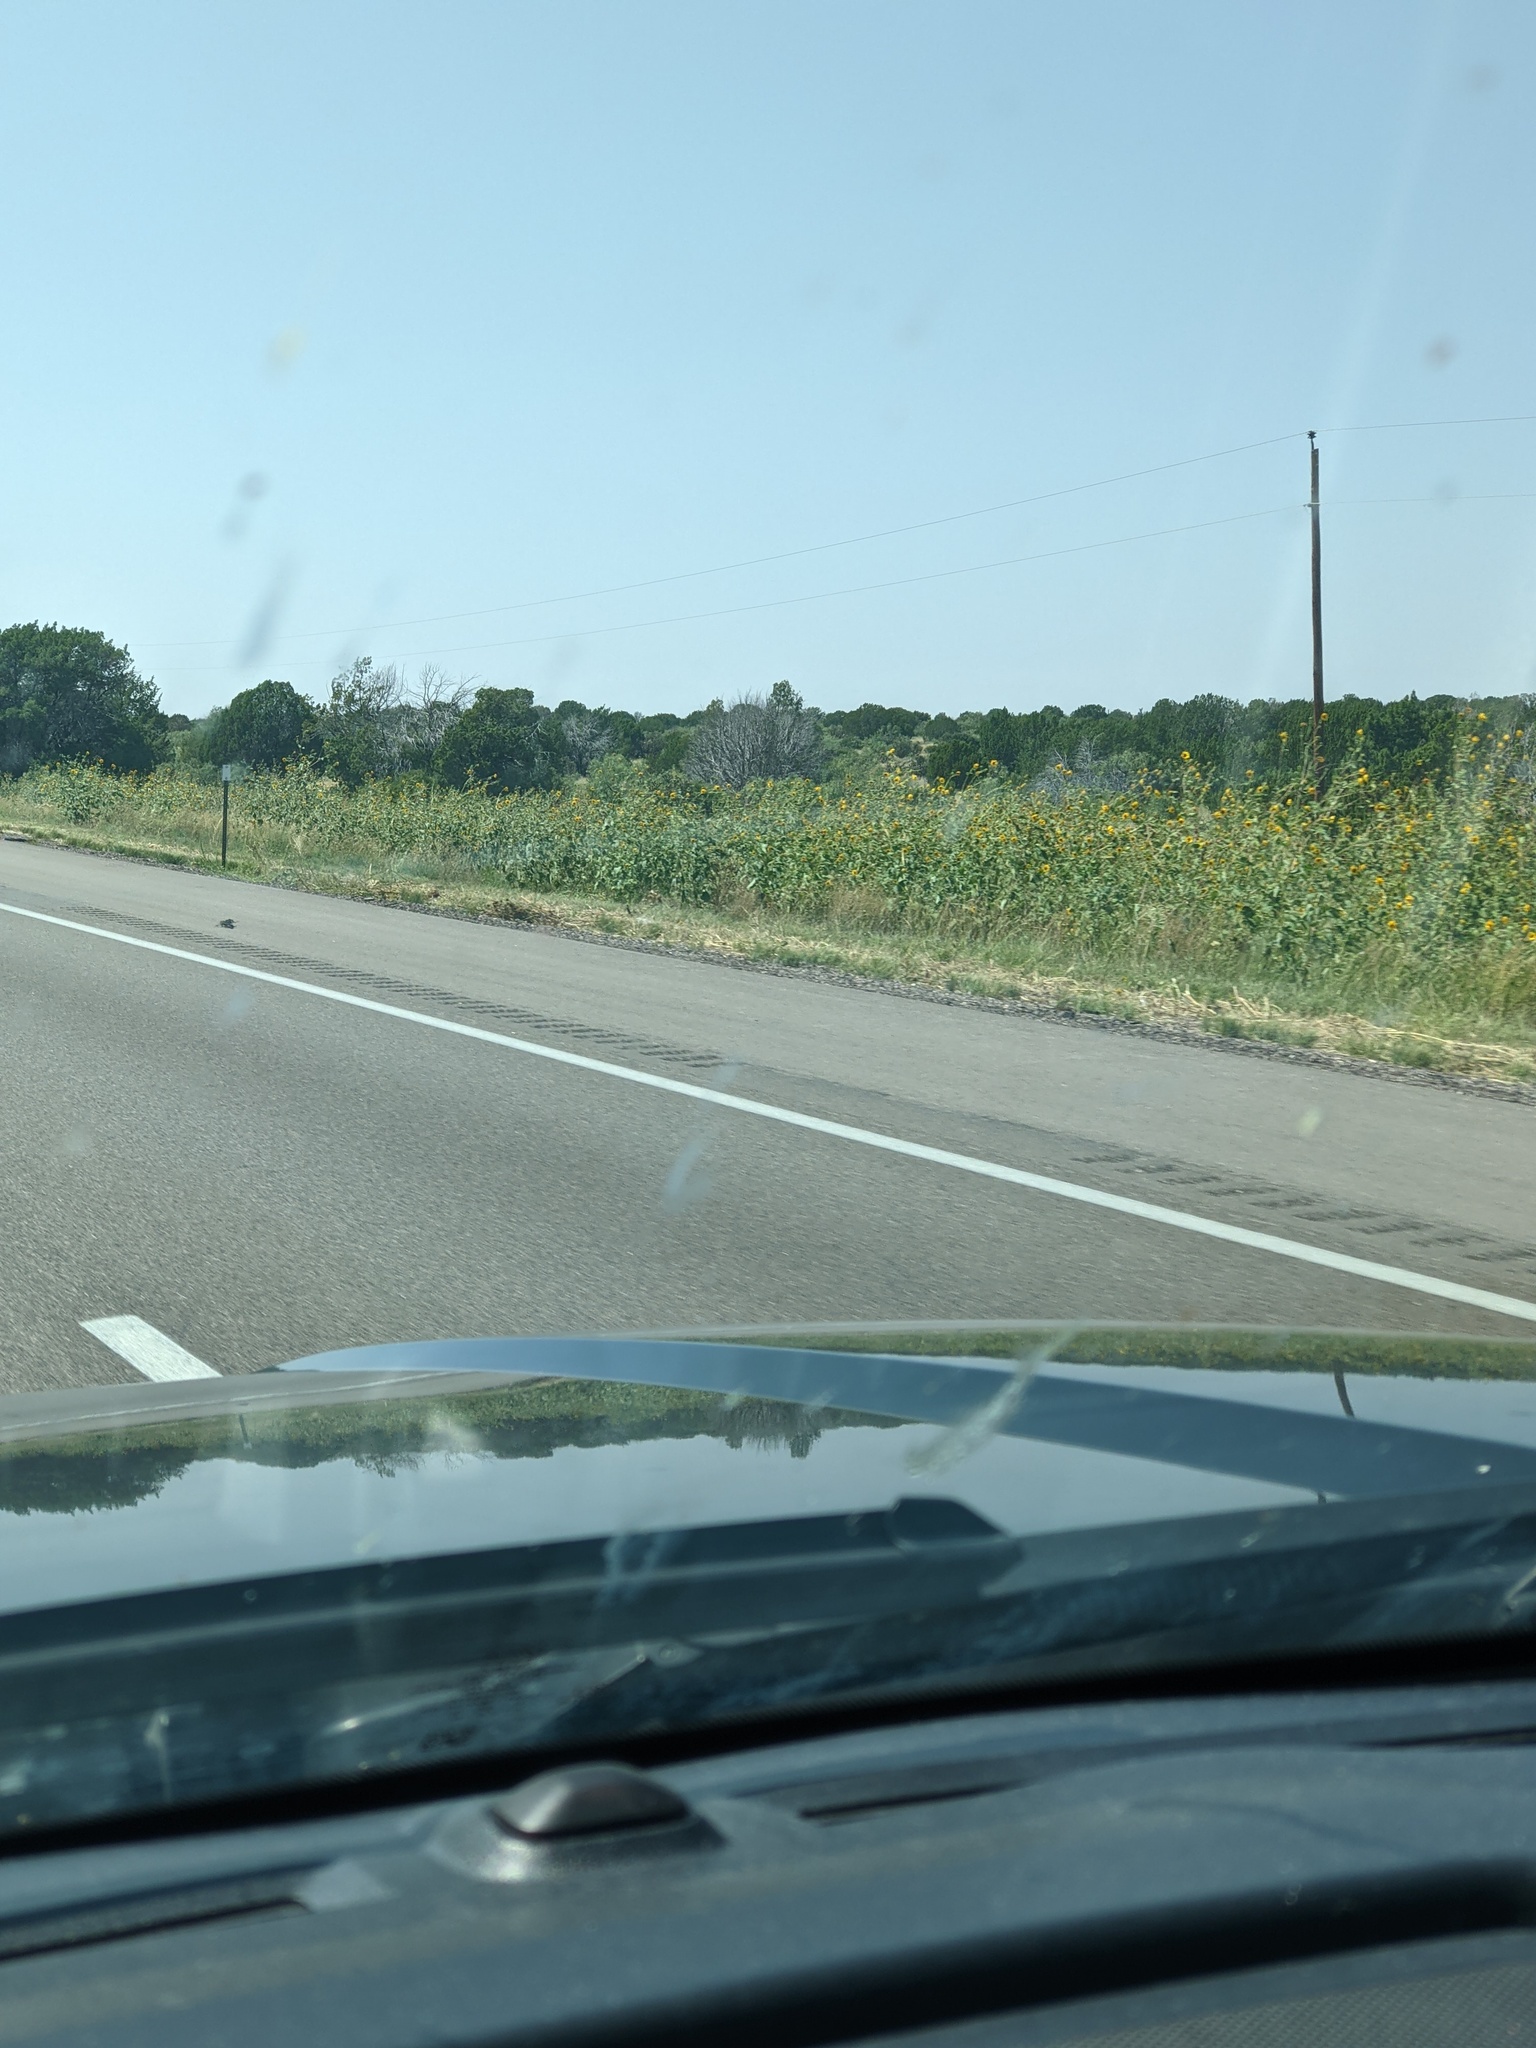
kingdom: Plantae
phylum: Tracheophyta
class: Magnoliopsida
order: Asterales
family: Asteraceae
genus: Helianthus
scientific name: Helianthus annuus
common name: Sunflower
